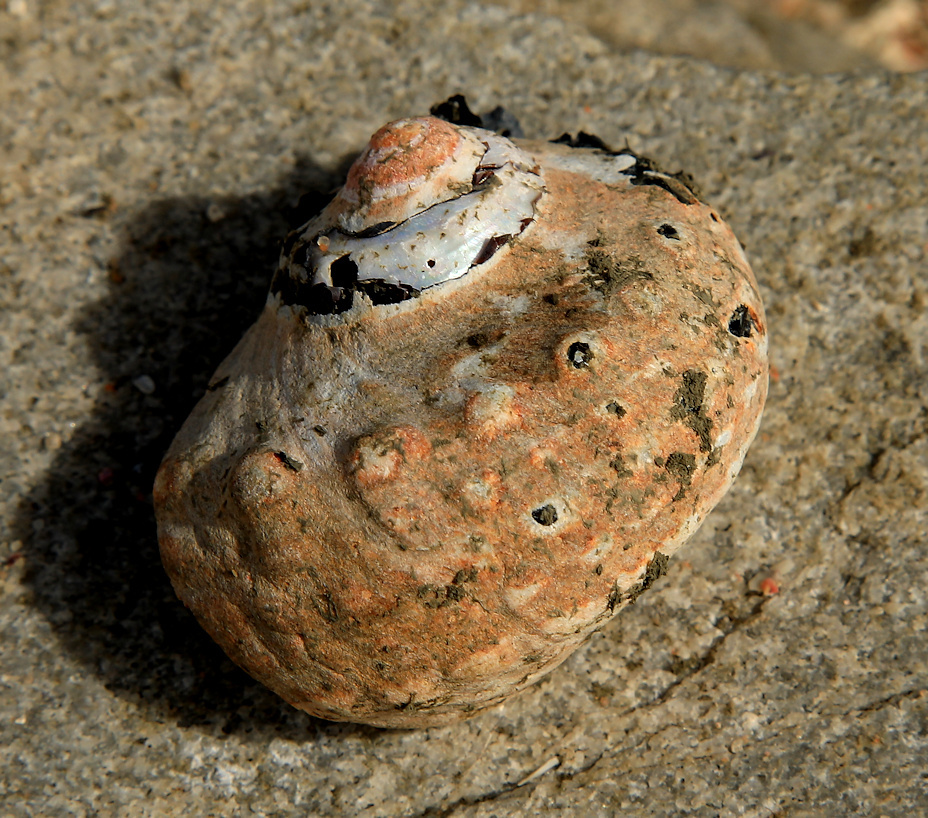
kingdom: Animalia
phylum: Mollusca
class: Gastropoda
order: Trochida
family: Turbinidae
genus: Turbo
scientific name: Turbo sarmaticus
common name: South african turban
